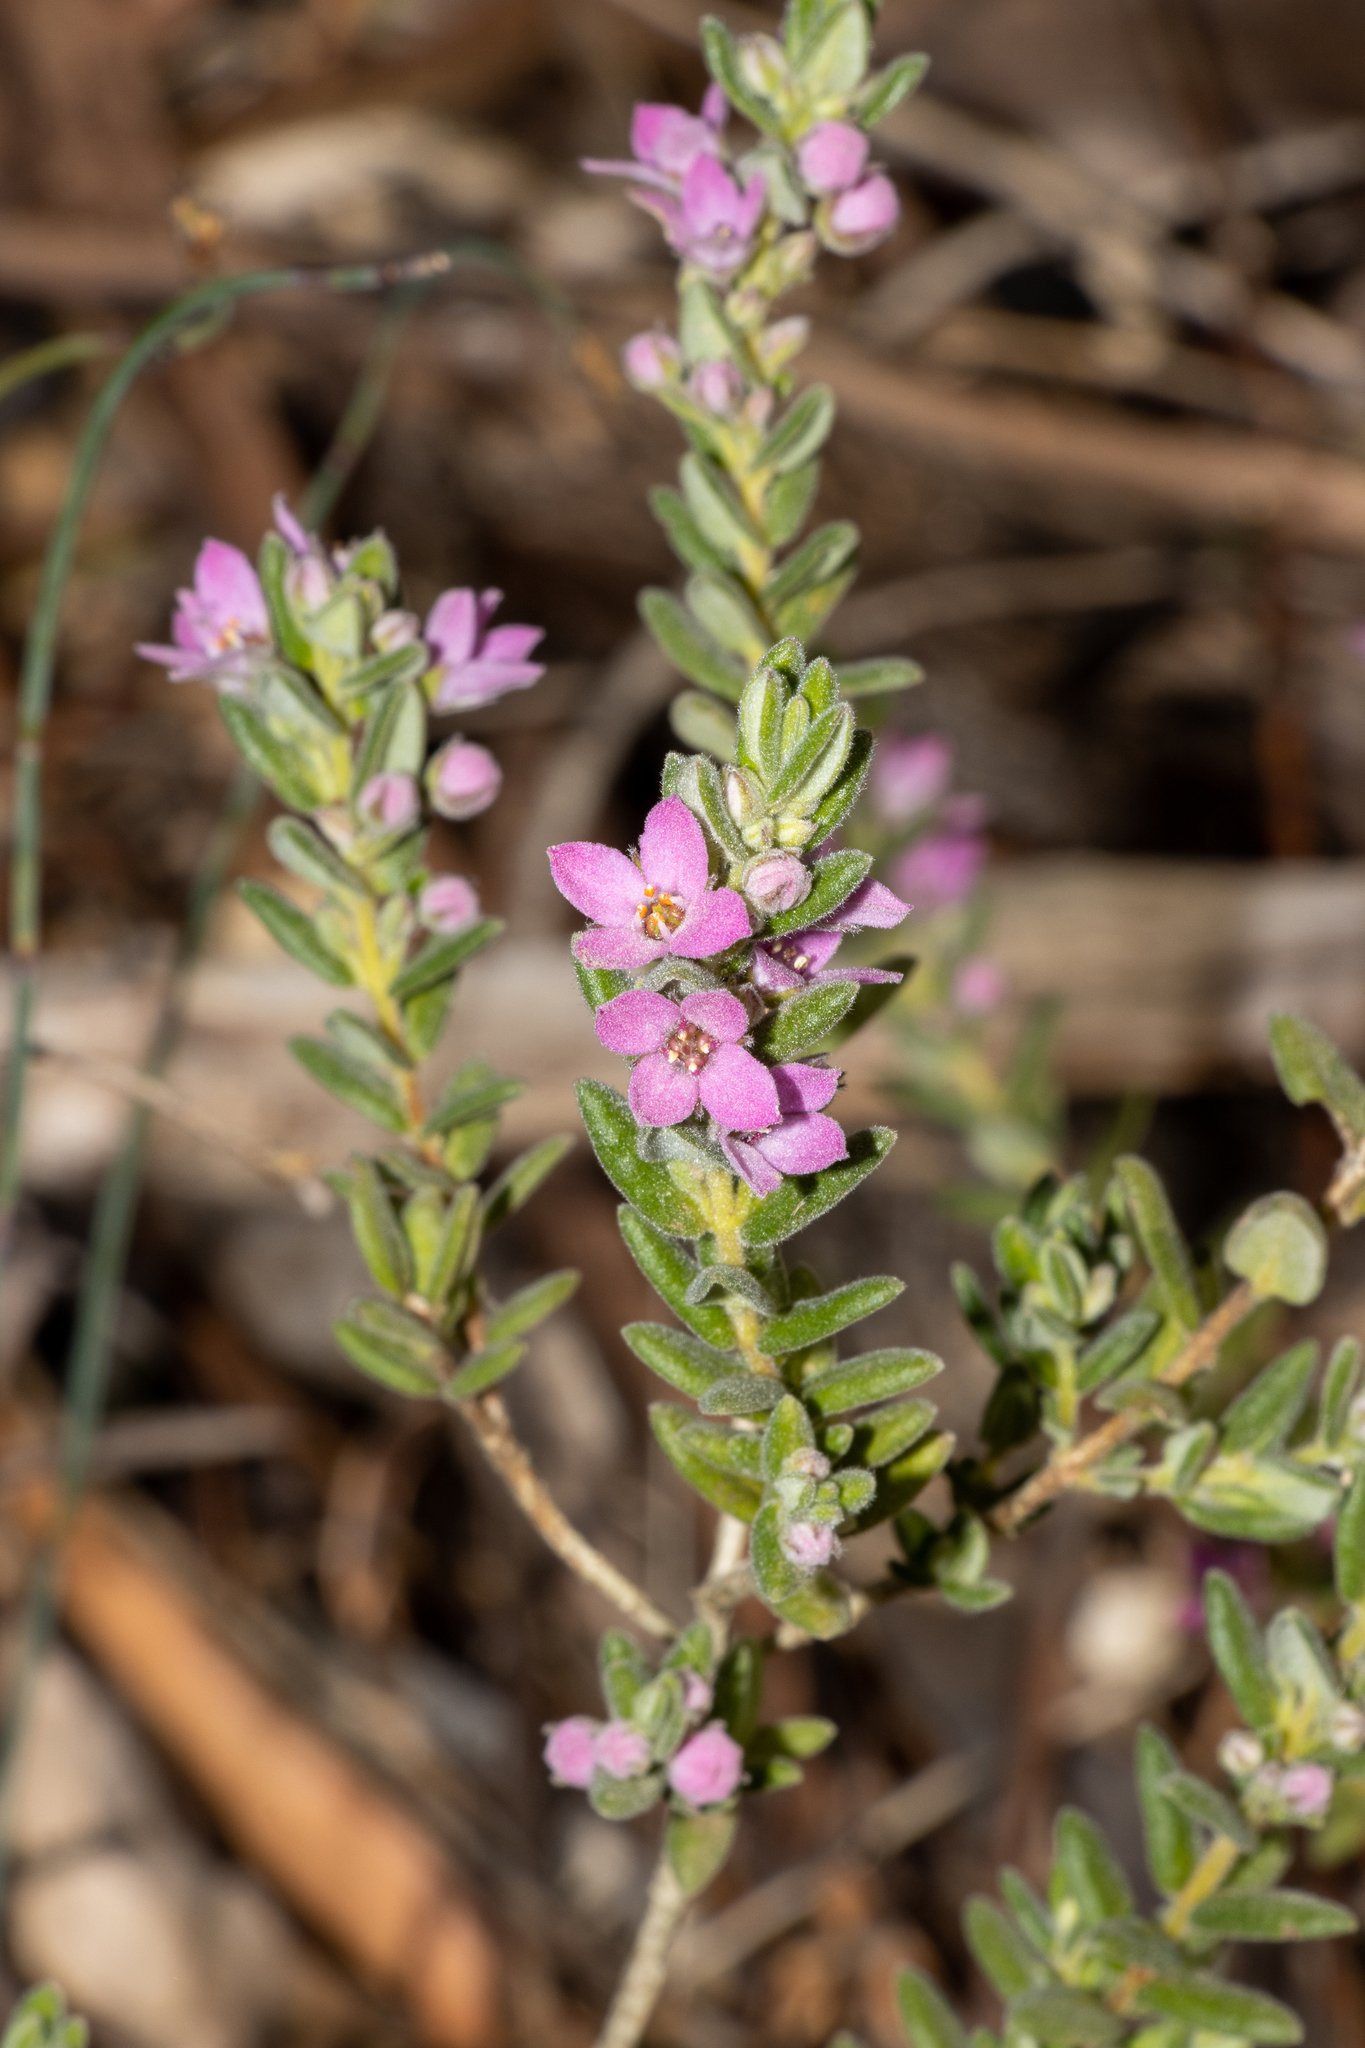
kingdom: Plantae
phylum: Tracheophyta
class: Magnoliopsida
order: Sapindales
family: Rutaceae
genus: Zieria
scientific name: Zieria veronicea
